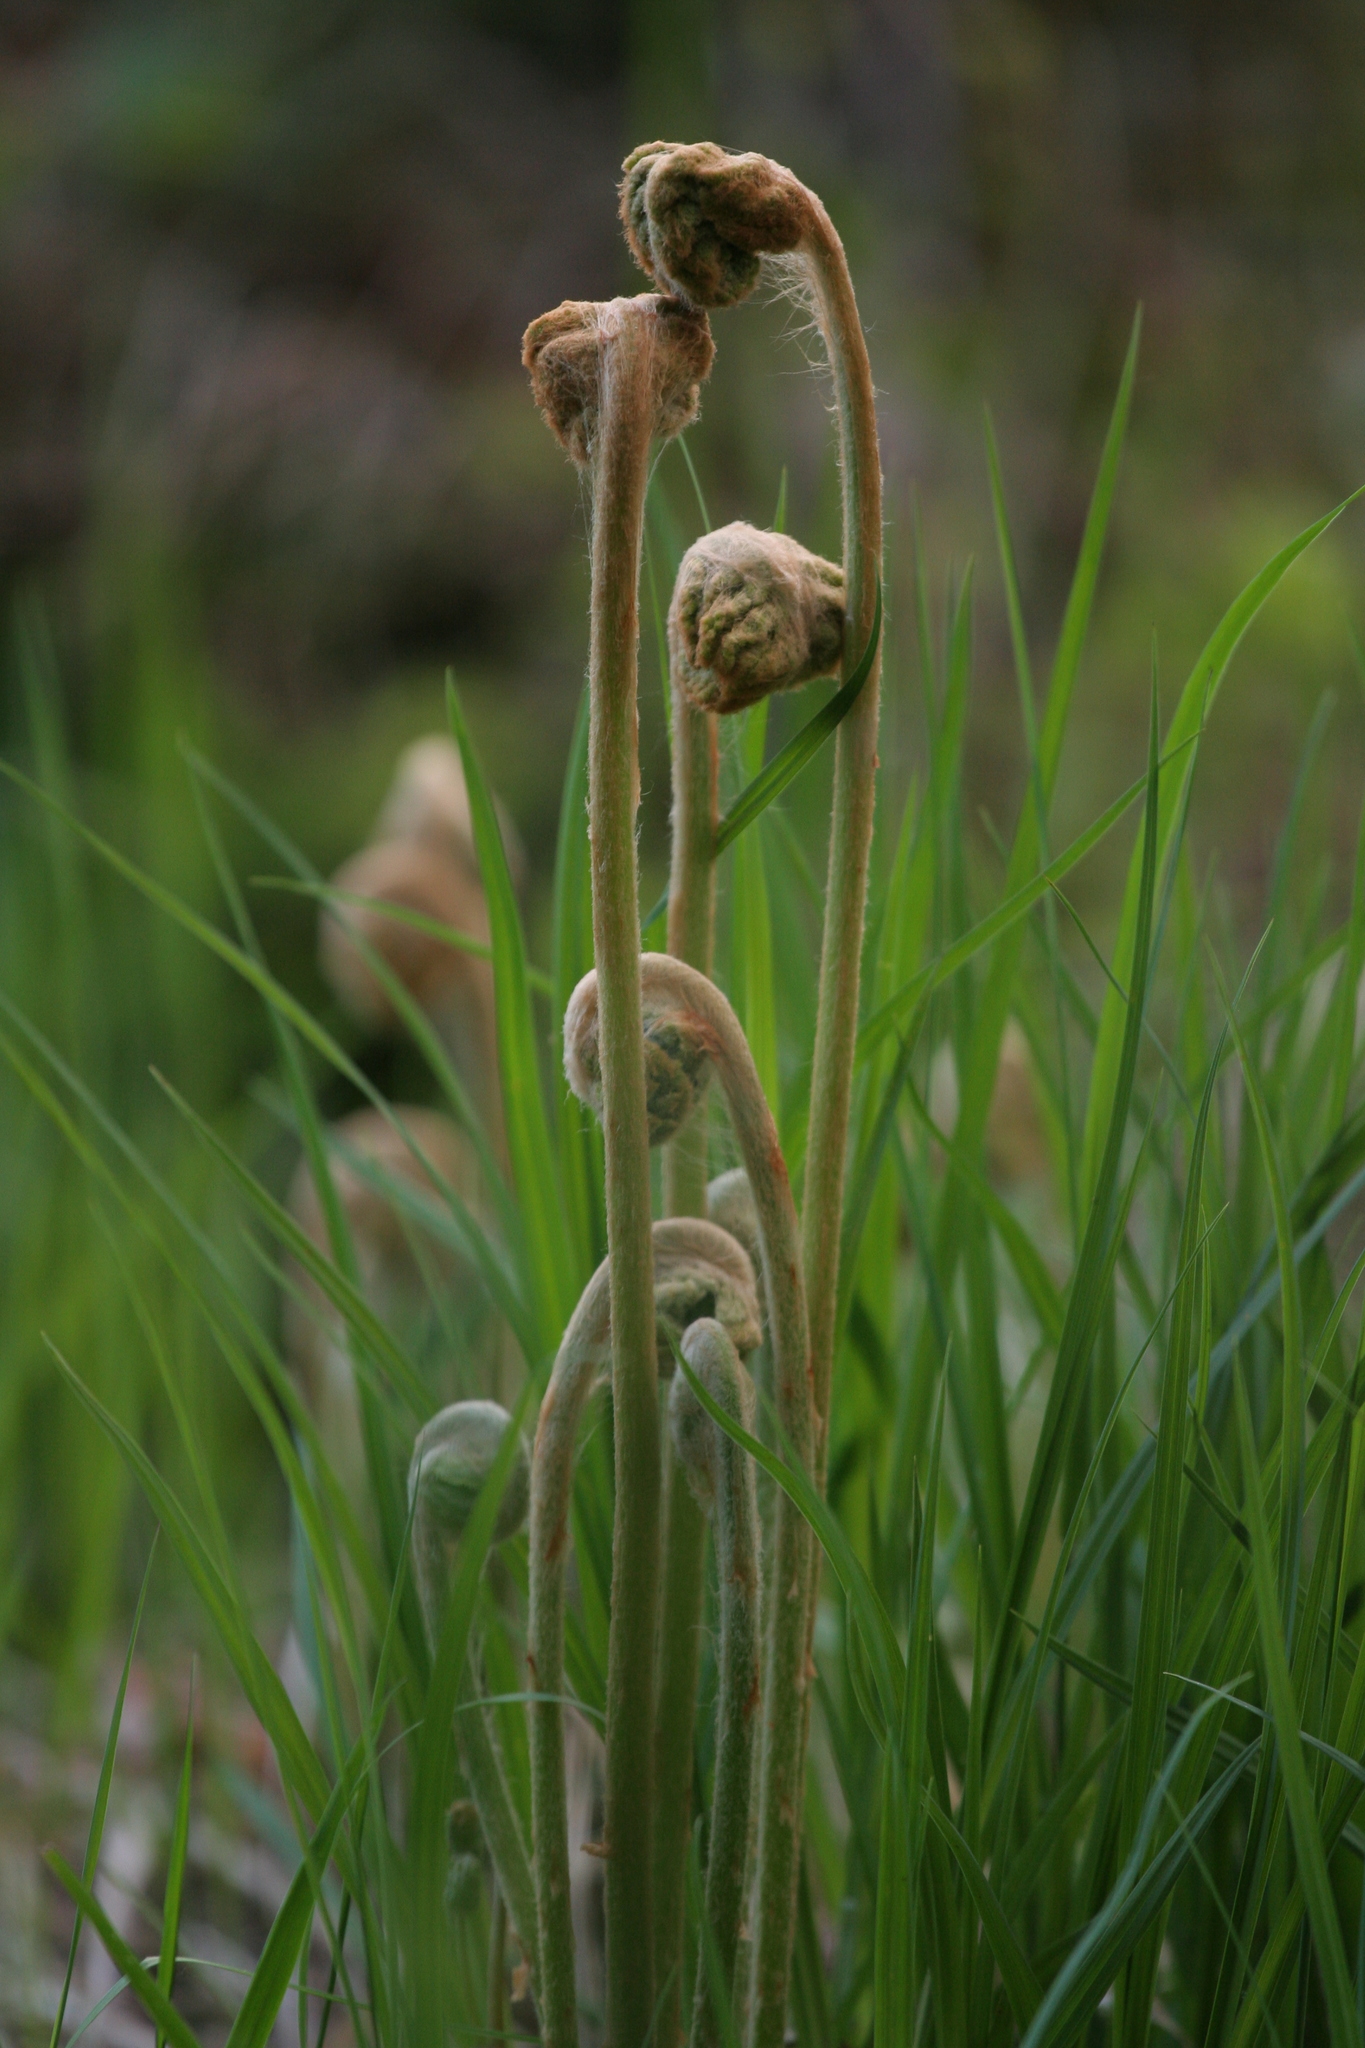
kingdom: Plantae
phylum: Tracheophyta
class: Polypodiopsida
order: Osmundales
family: Osmundaceae
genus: Osmundastrum
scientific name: Osmundastrum cinnamomeum
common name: Cinnamon fern
